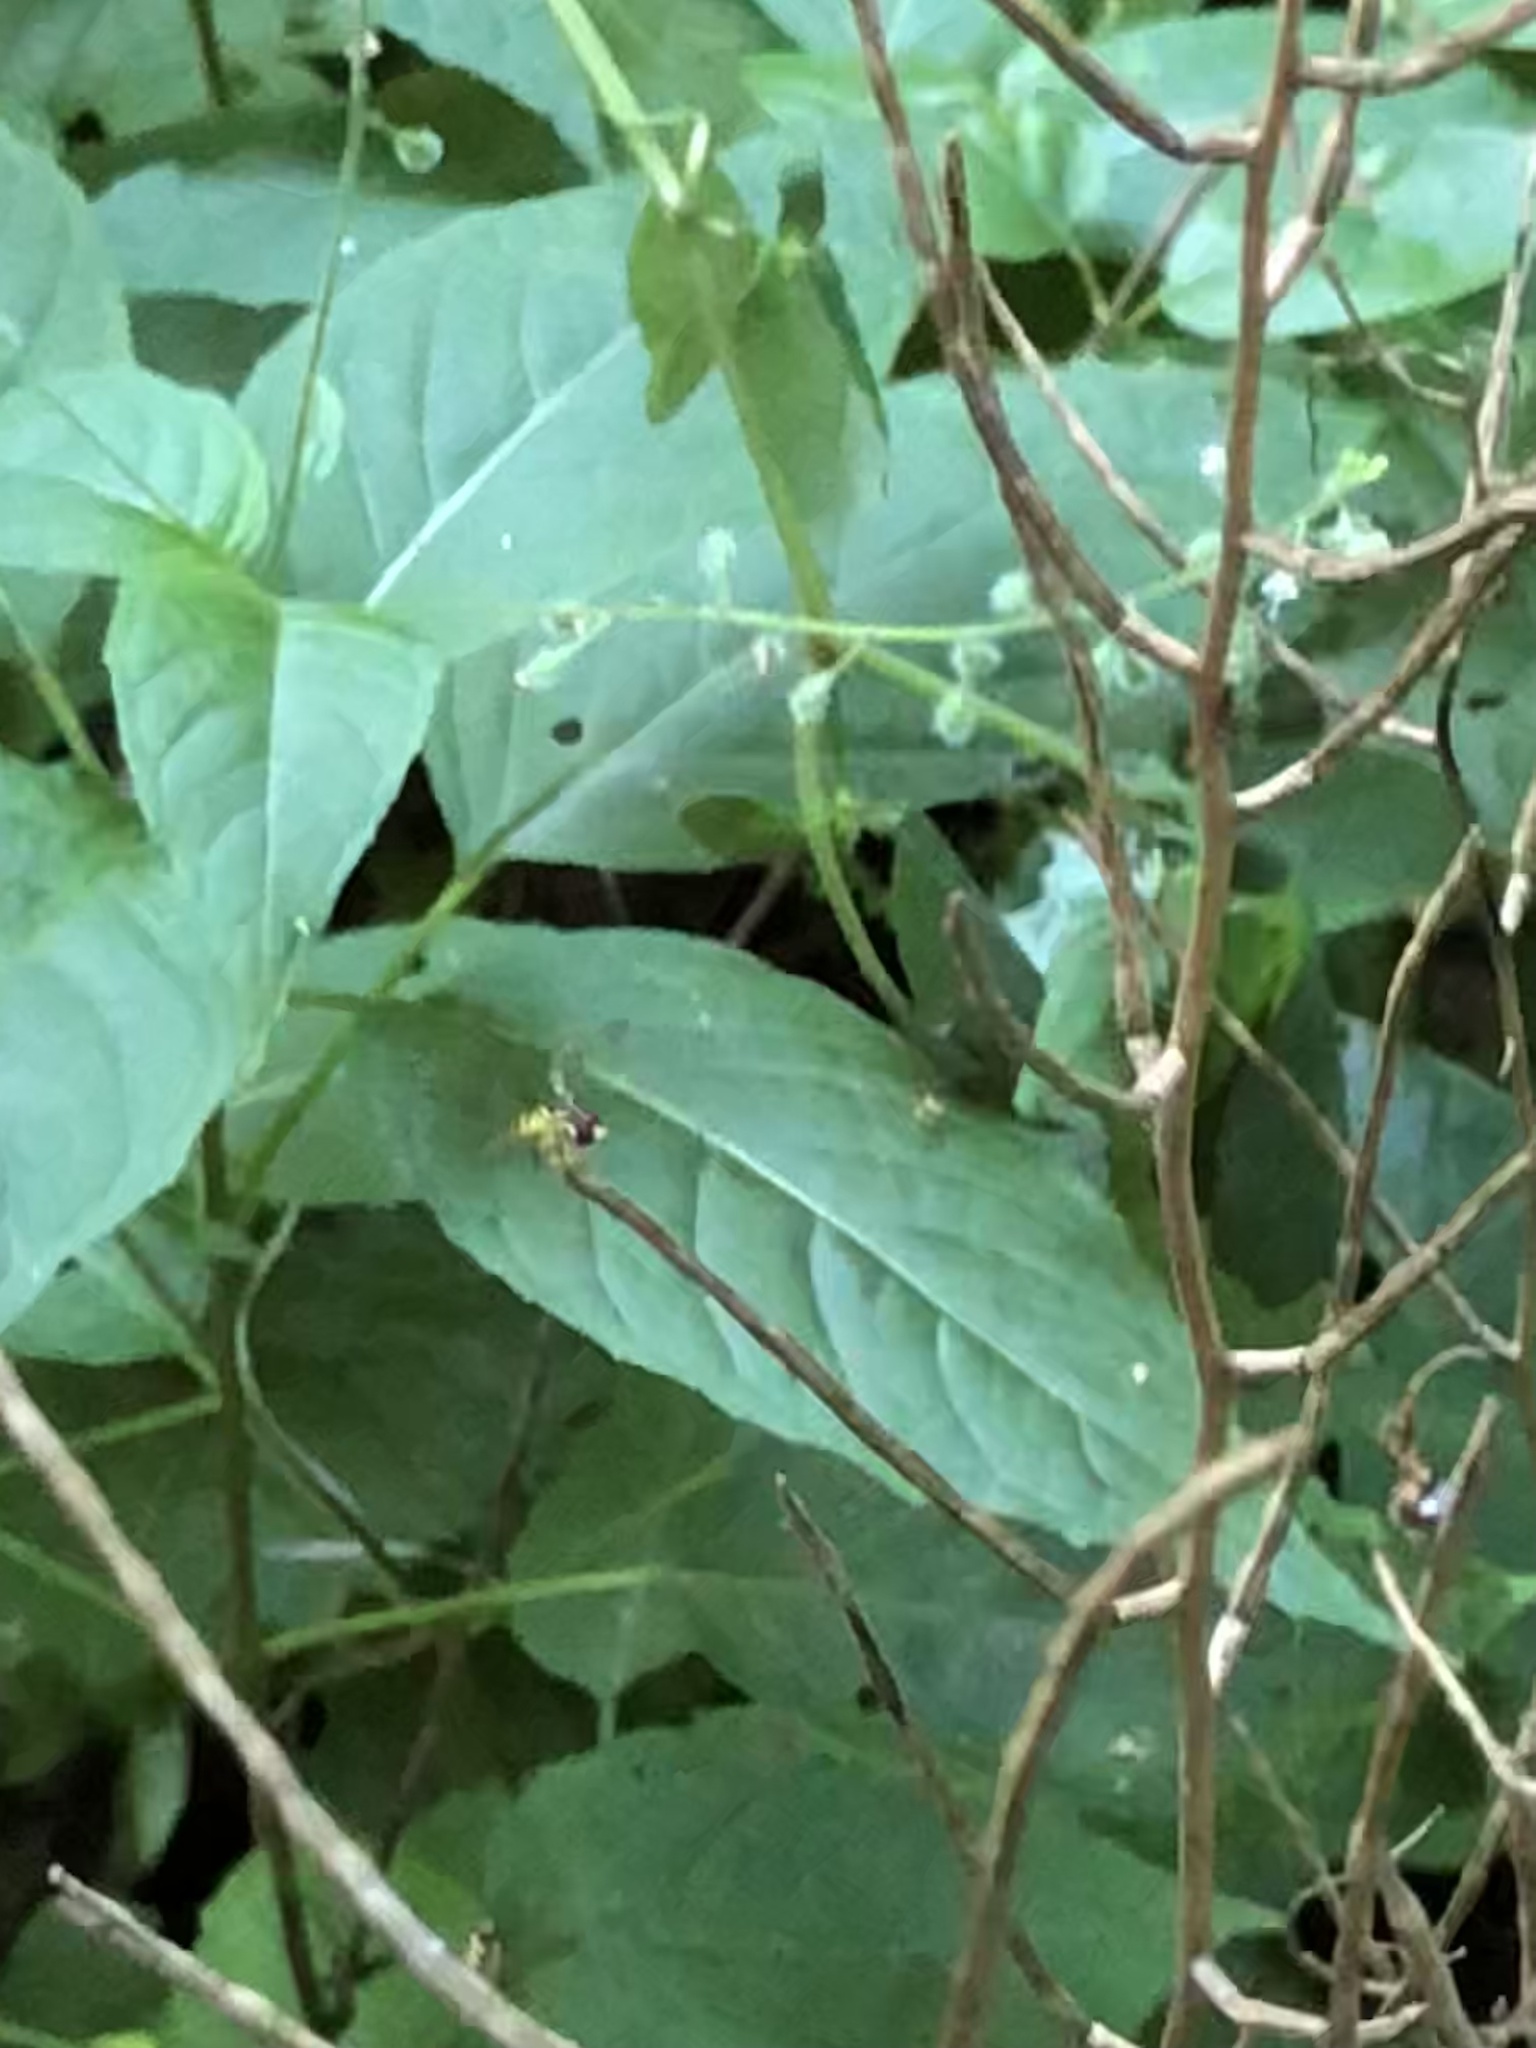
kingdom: Animalia
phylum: Arthropoda
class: Insecta
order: Diptera
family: Syrphidae
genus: Toxomerus
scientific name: Toxomerus geminatus
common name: Eastern calligrapher
